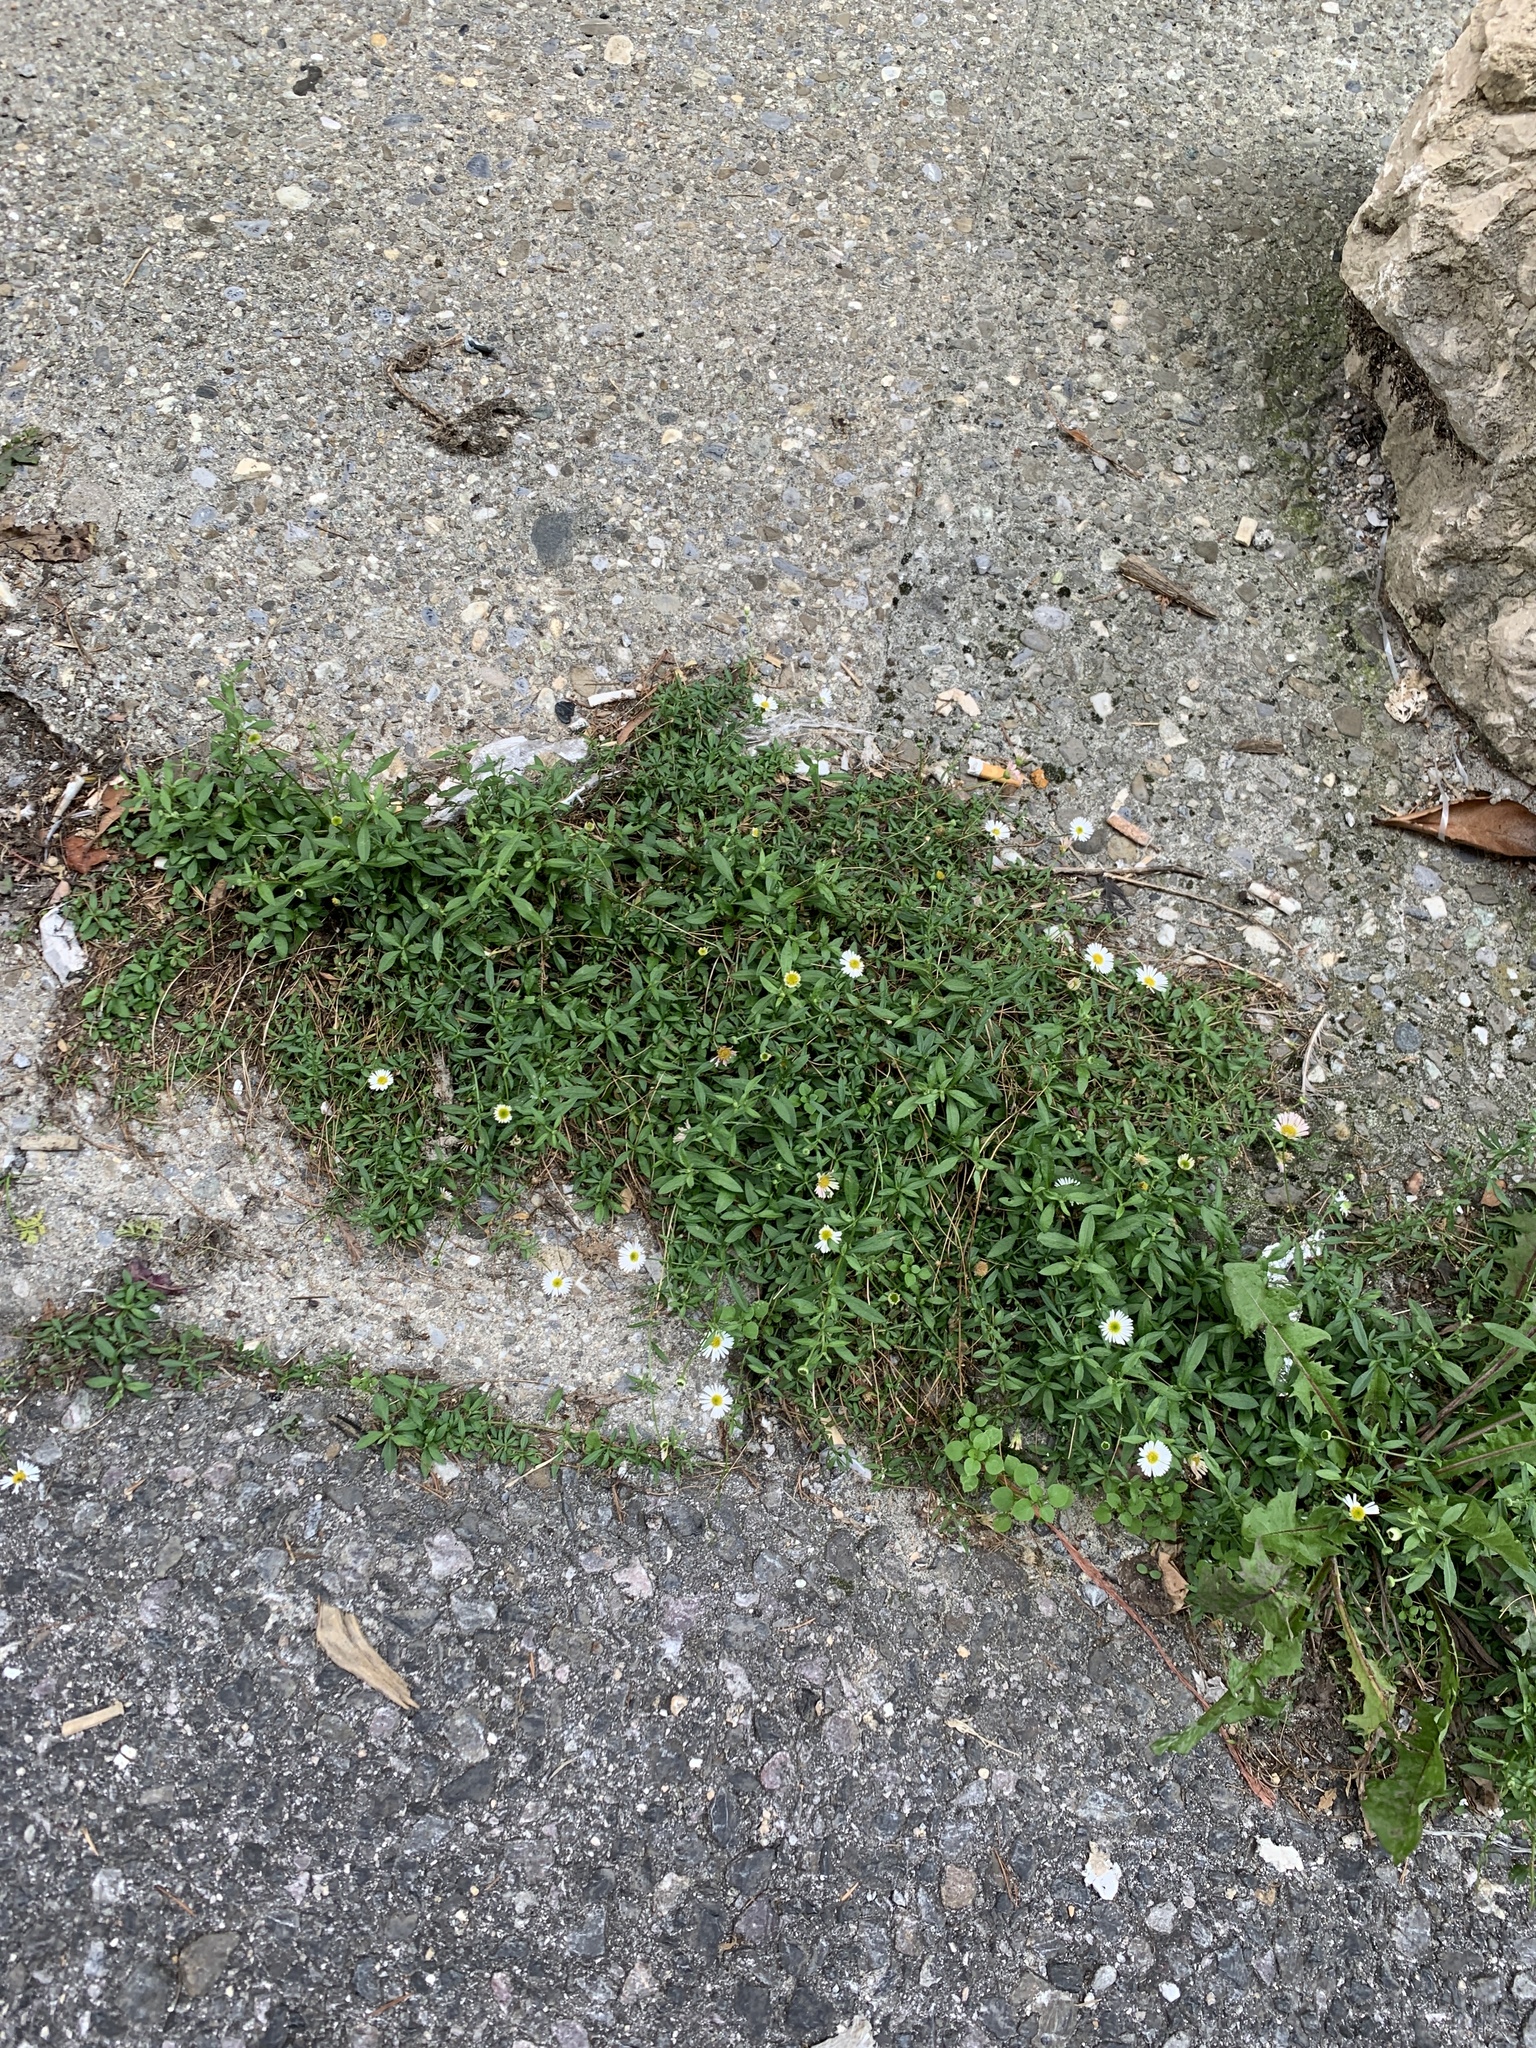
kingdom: Plantae
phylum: Tracheophyta
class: Magnoliopsida
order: Asterales
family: Asteraceae
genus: Erigeron
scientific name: Erigeron karvinskianus
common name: Mexican fleabane
